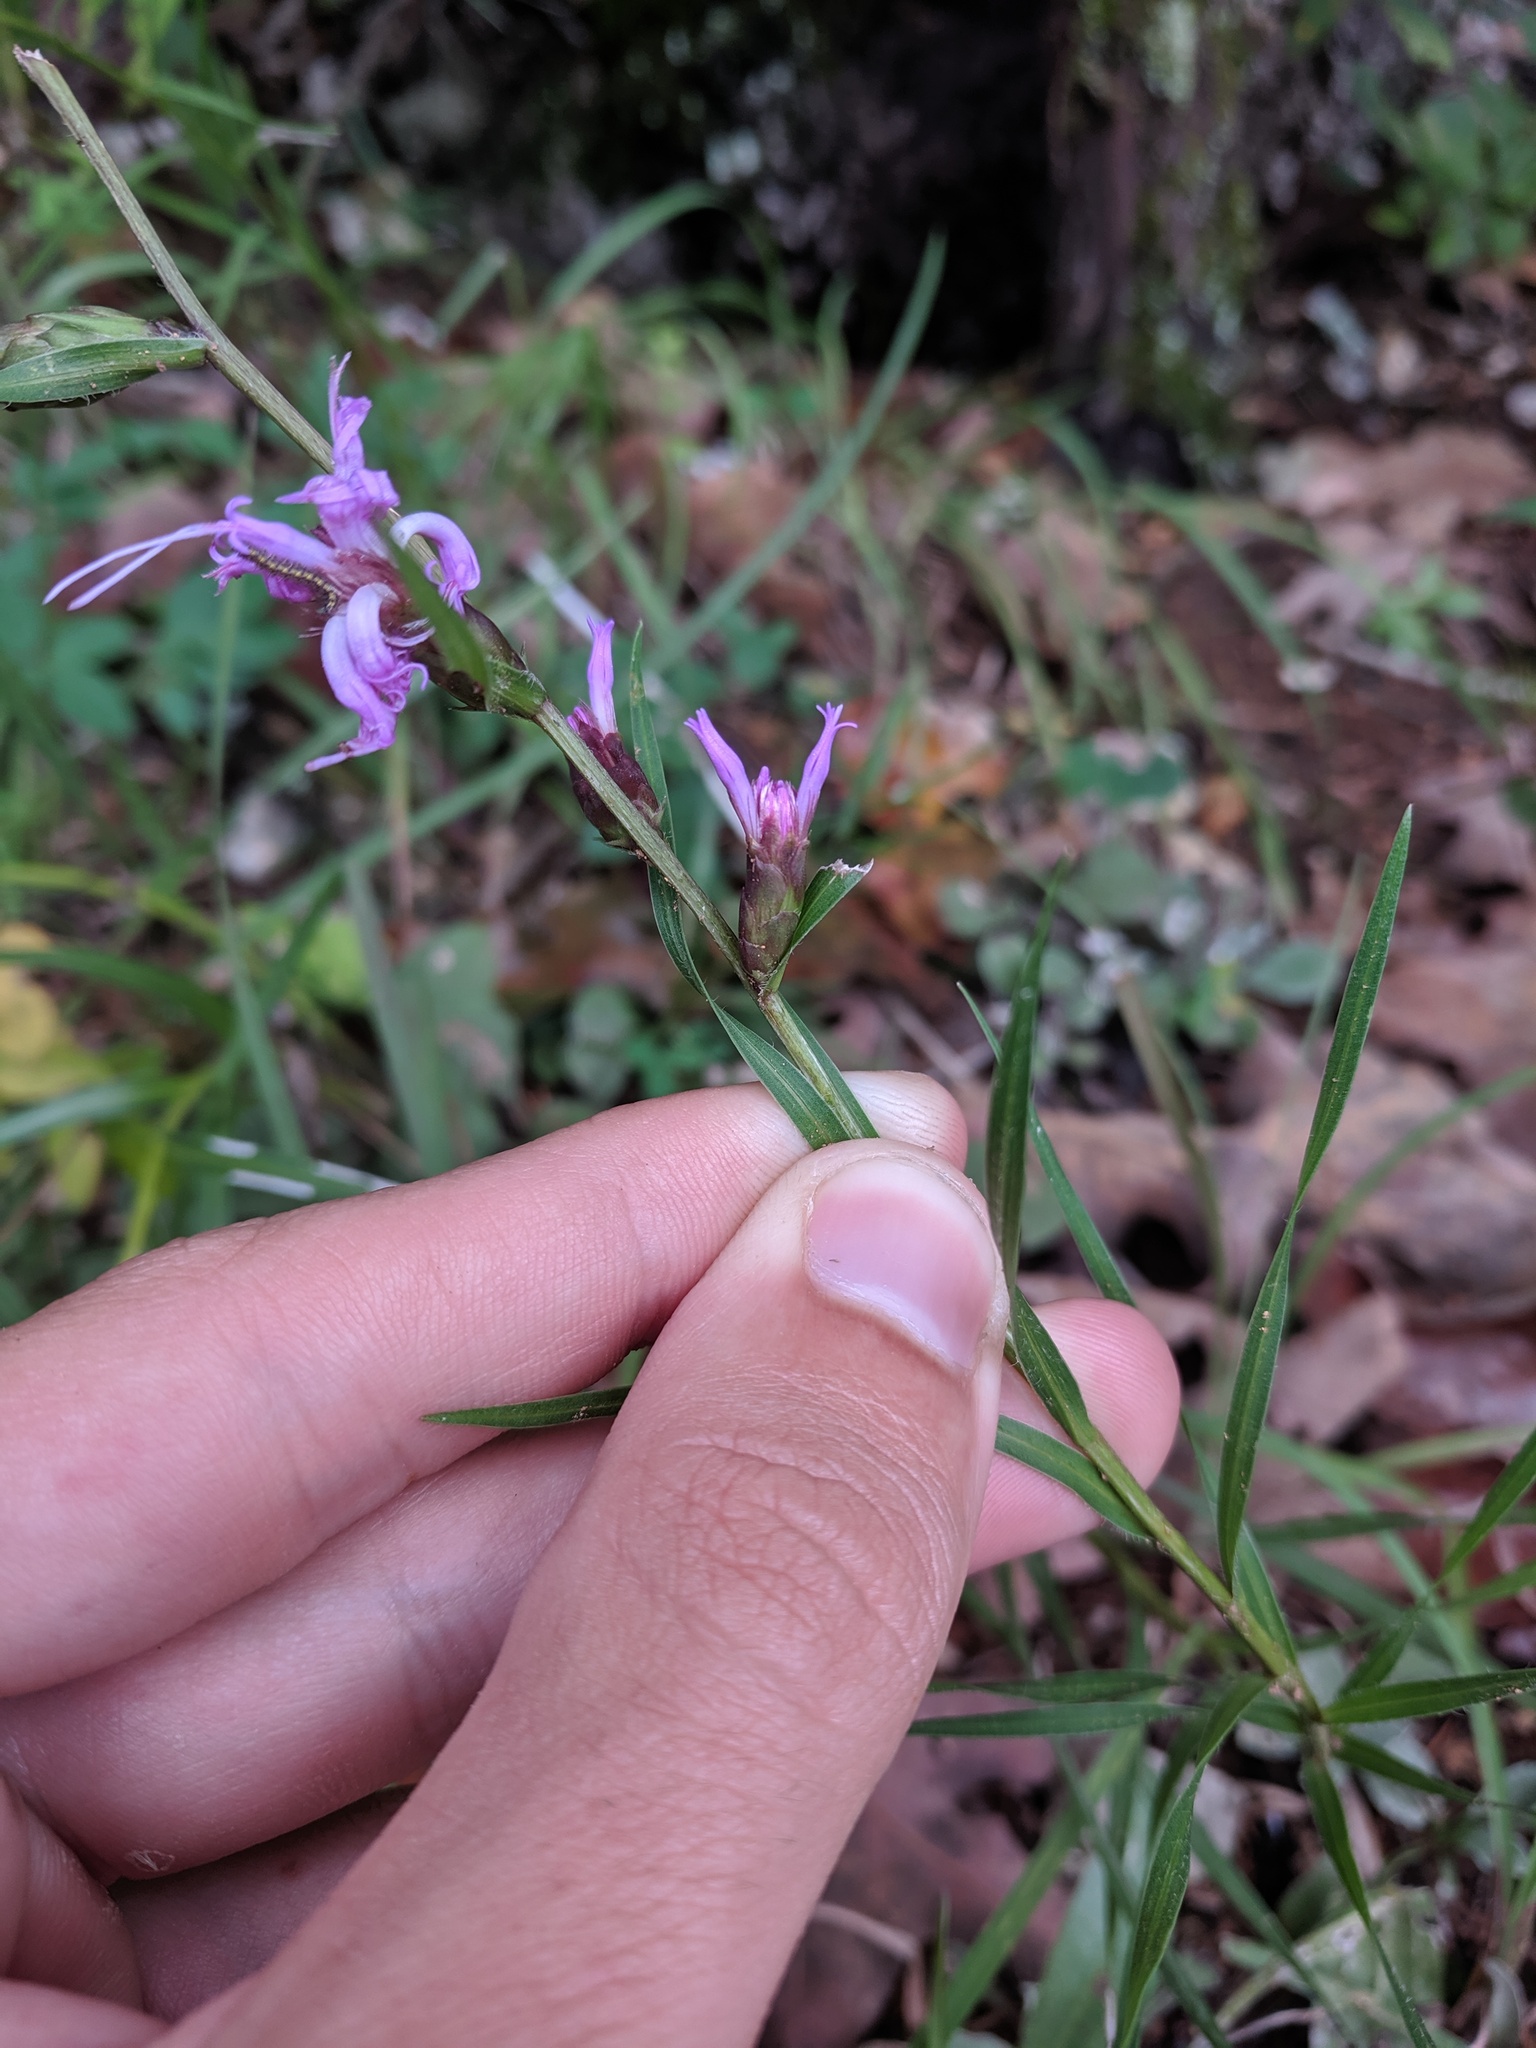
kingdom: Plantae
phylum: Tracheophyta
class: Magnoliopsida
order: Asterales
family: Asteraceae
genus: Liatris
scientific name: Liatris cylindracea
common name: Few-head blazingstar
